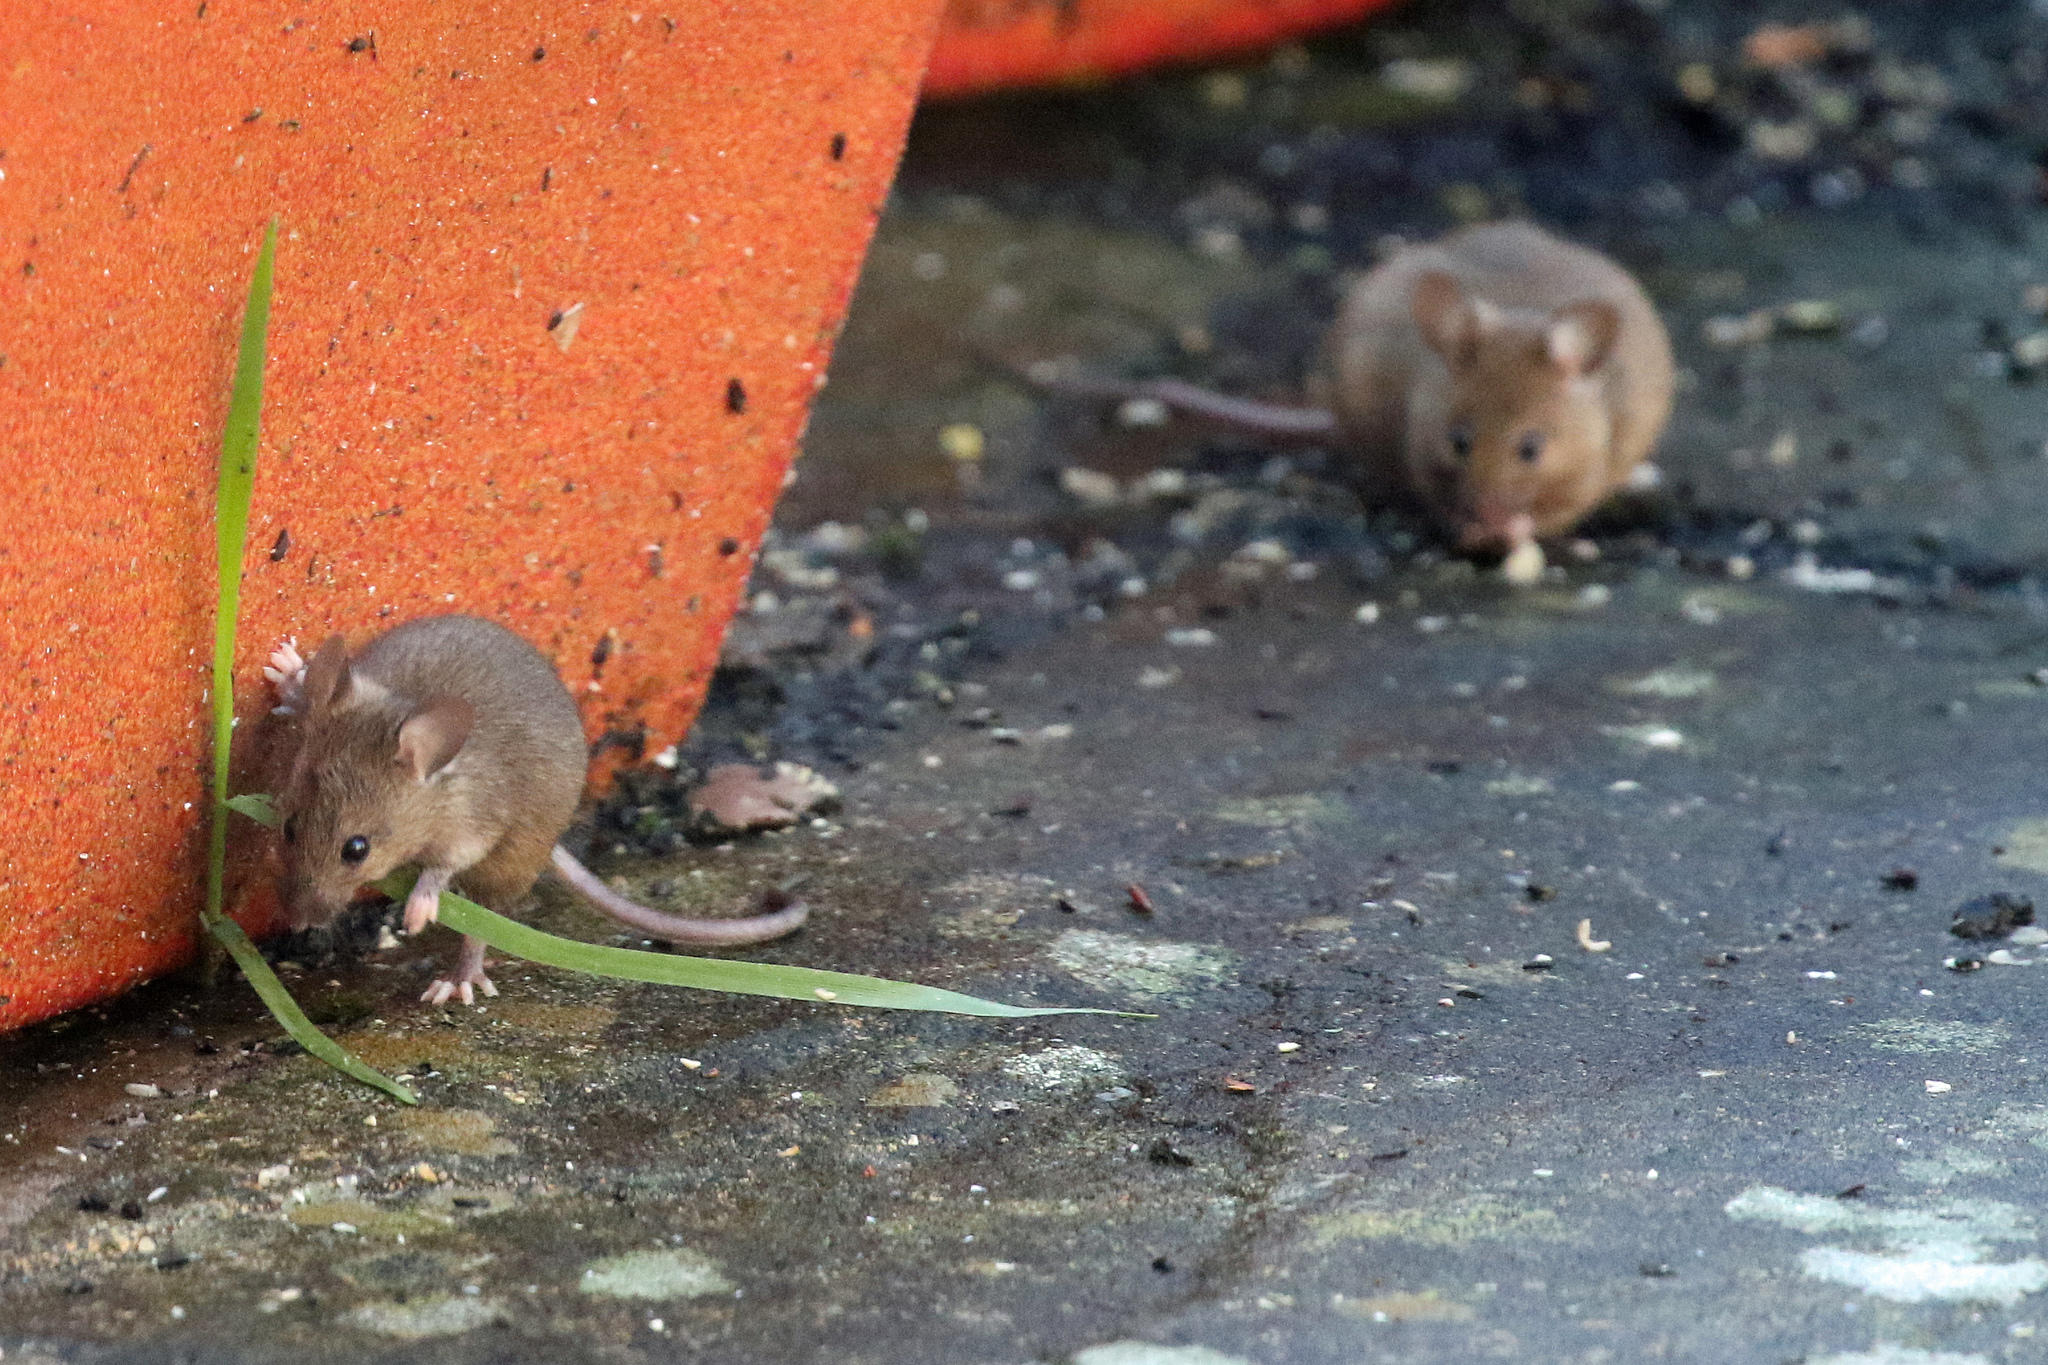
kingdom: Animalia
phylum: Chordata
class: Mammalia
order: Rodentia
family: Muridae
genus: Mus
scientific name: Mus musculus
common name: House mouse
